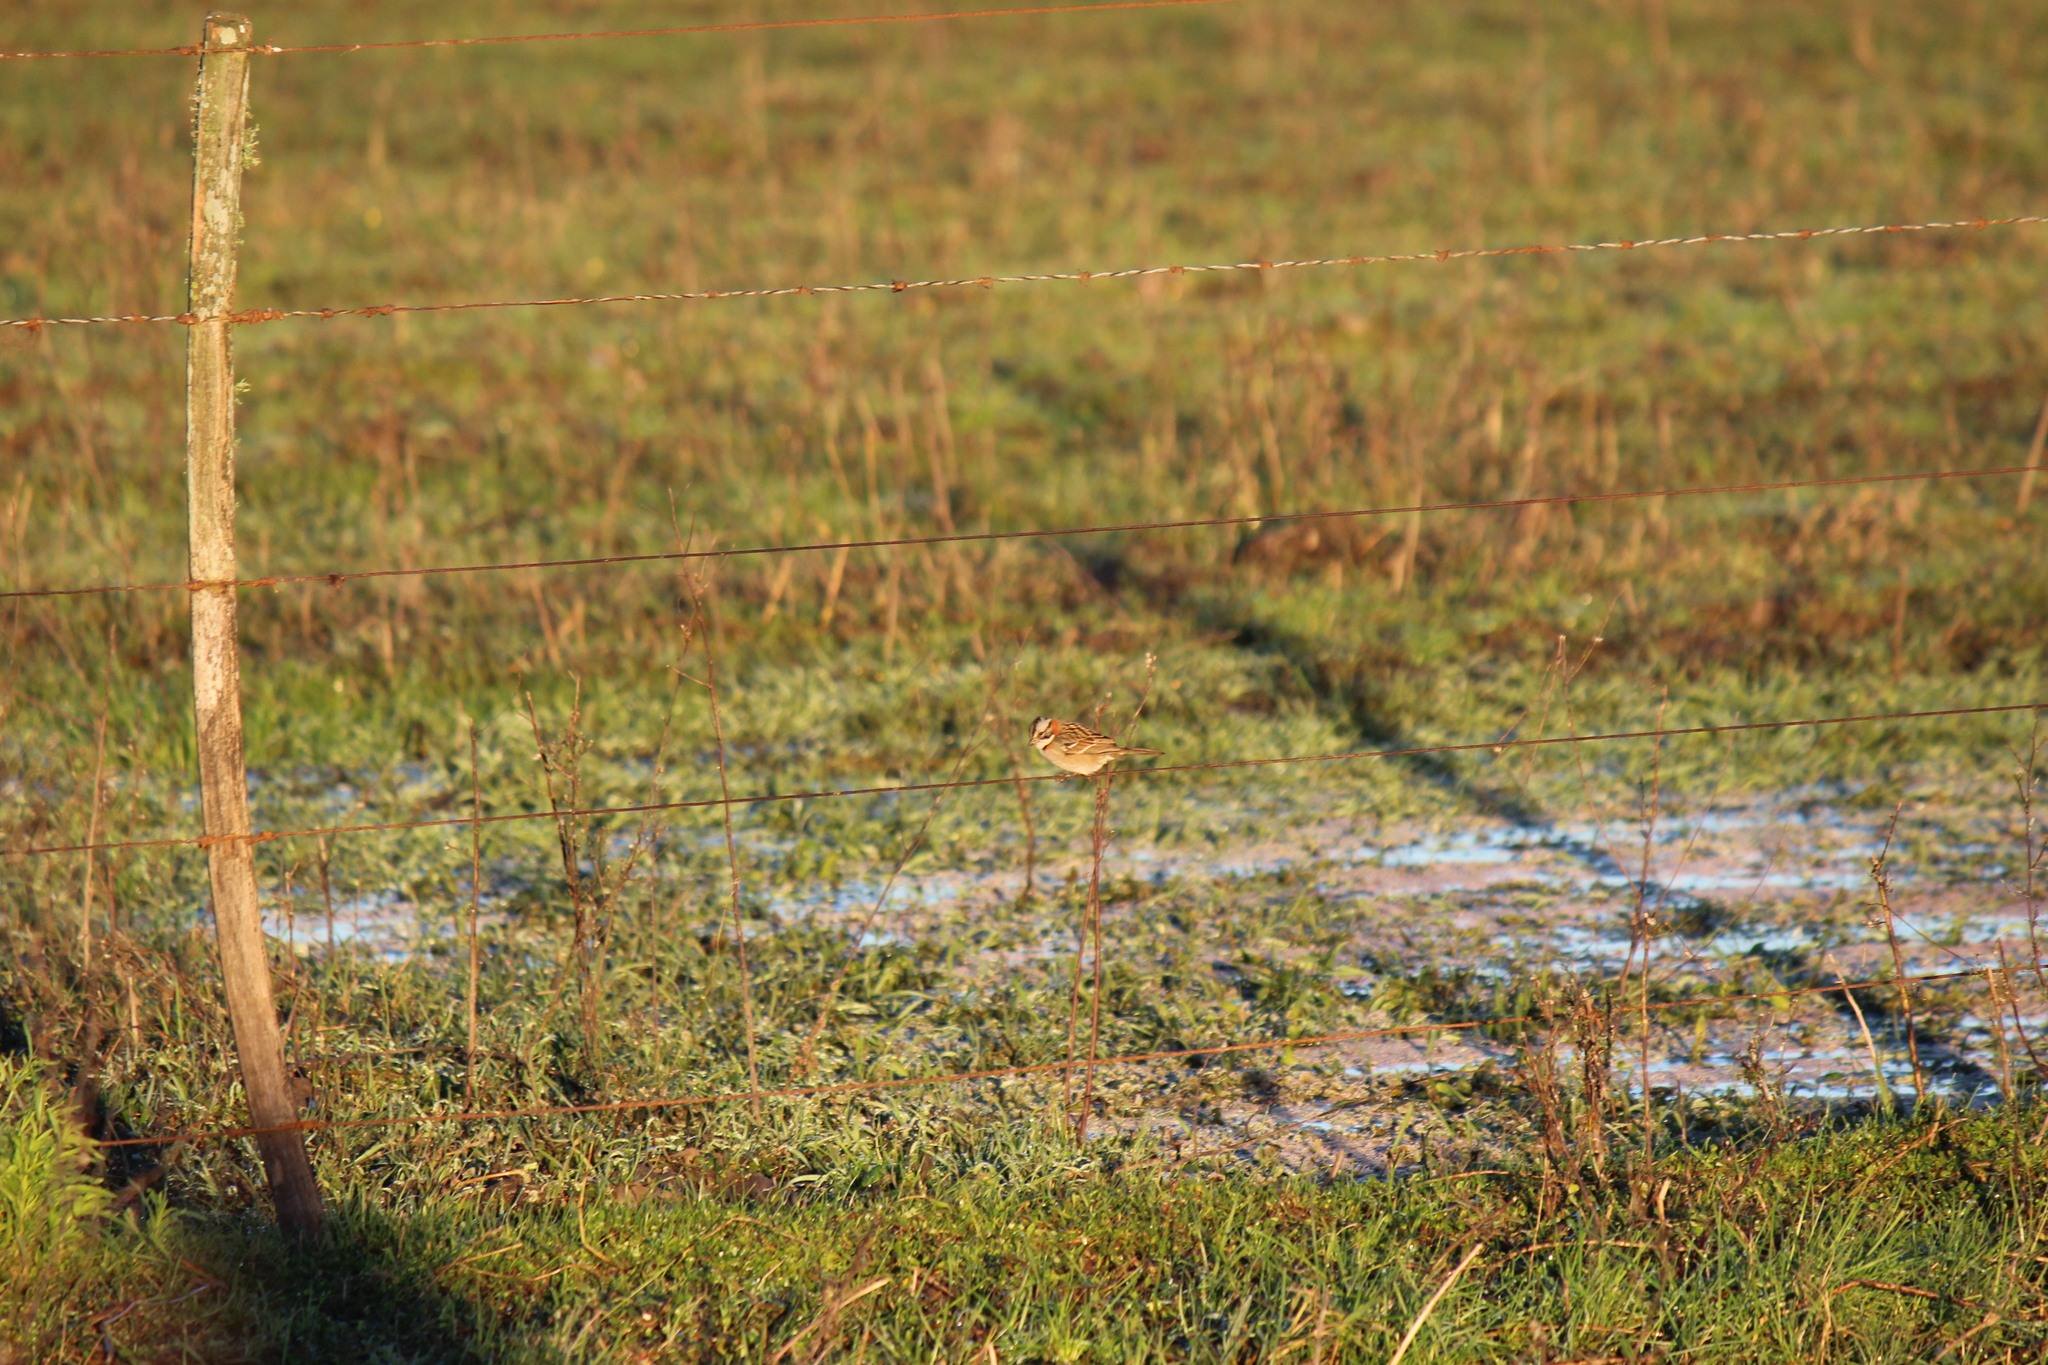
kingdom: Animalia
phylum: Chordata
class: Aves
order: Passeriformes
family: Passerellidae
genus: Zonotrichia
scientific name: Zonotrichia capensis
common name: Rufous-collared sparrow
